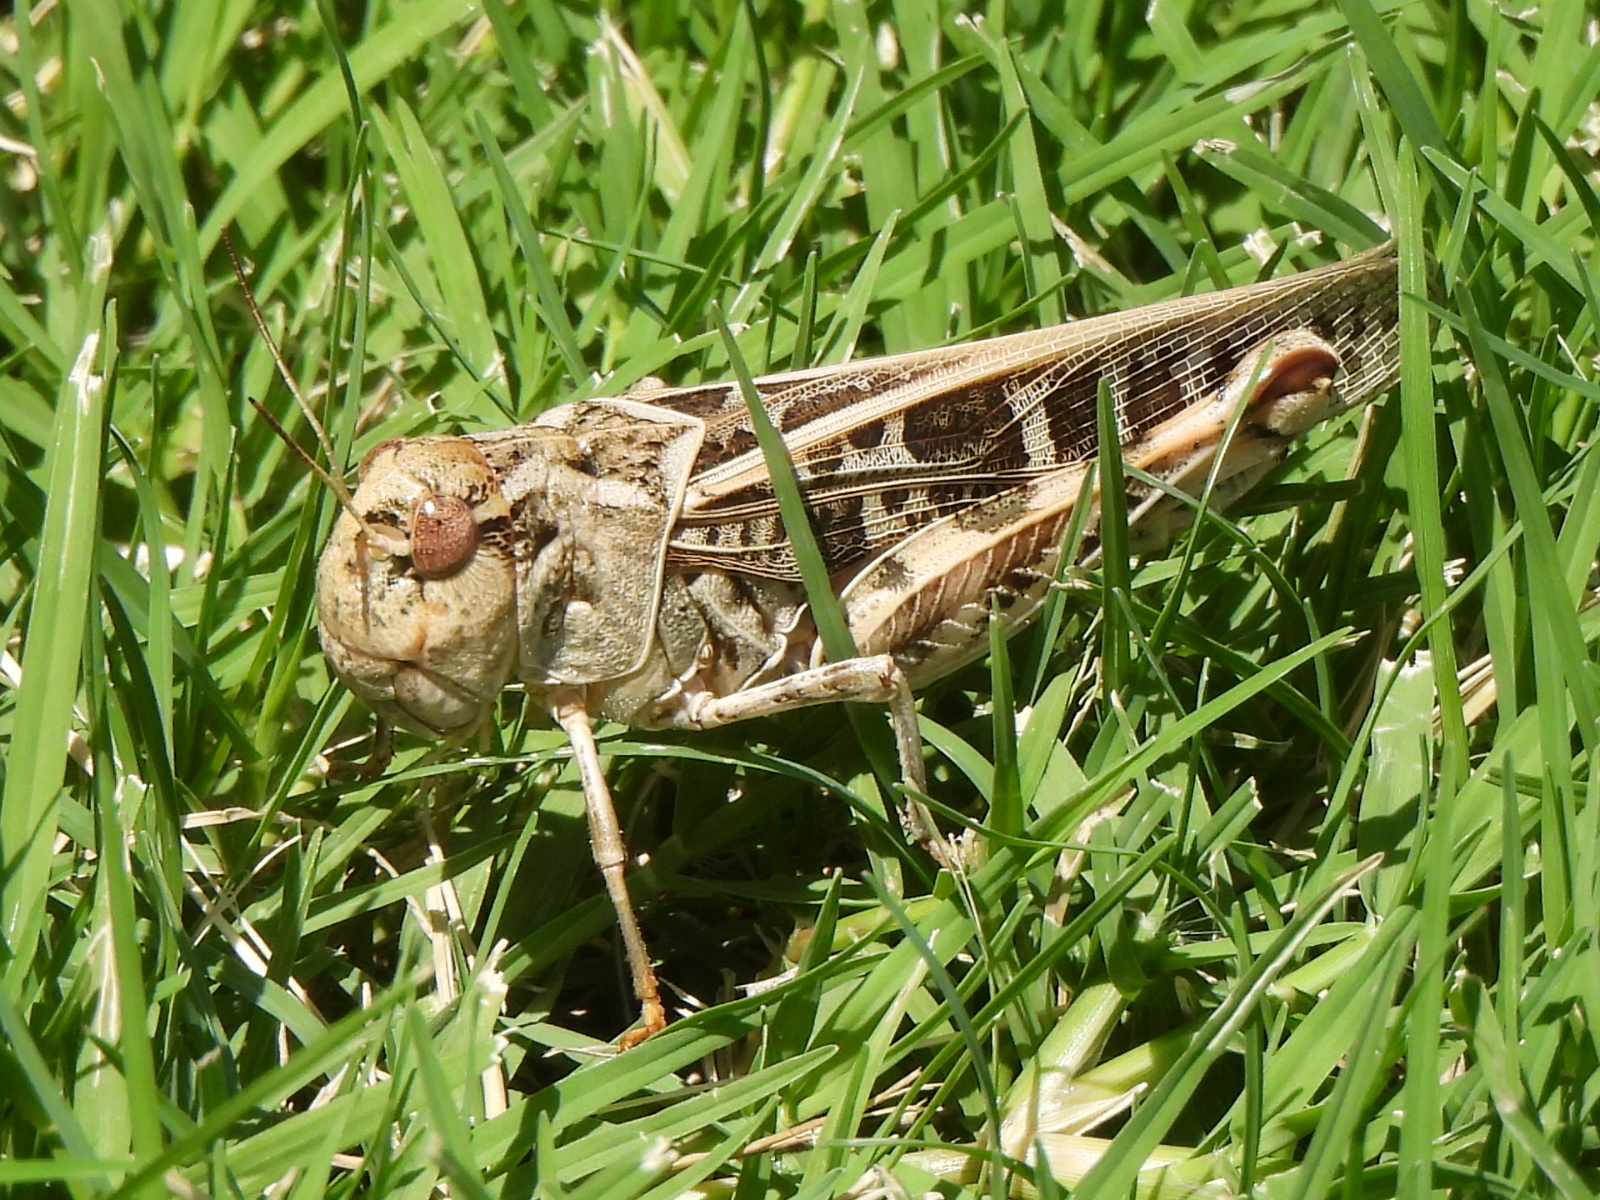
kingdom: Animalia
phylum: Arthropoda
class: Insecta
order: Orthoptera
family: Acrididae
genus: Hippiscus
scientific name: Hippiscus ocelote
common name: Wrinkled grasshopper
